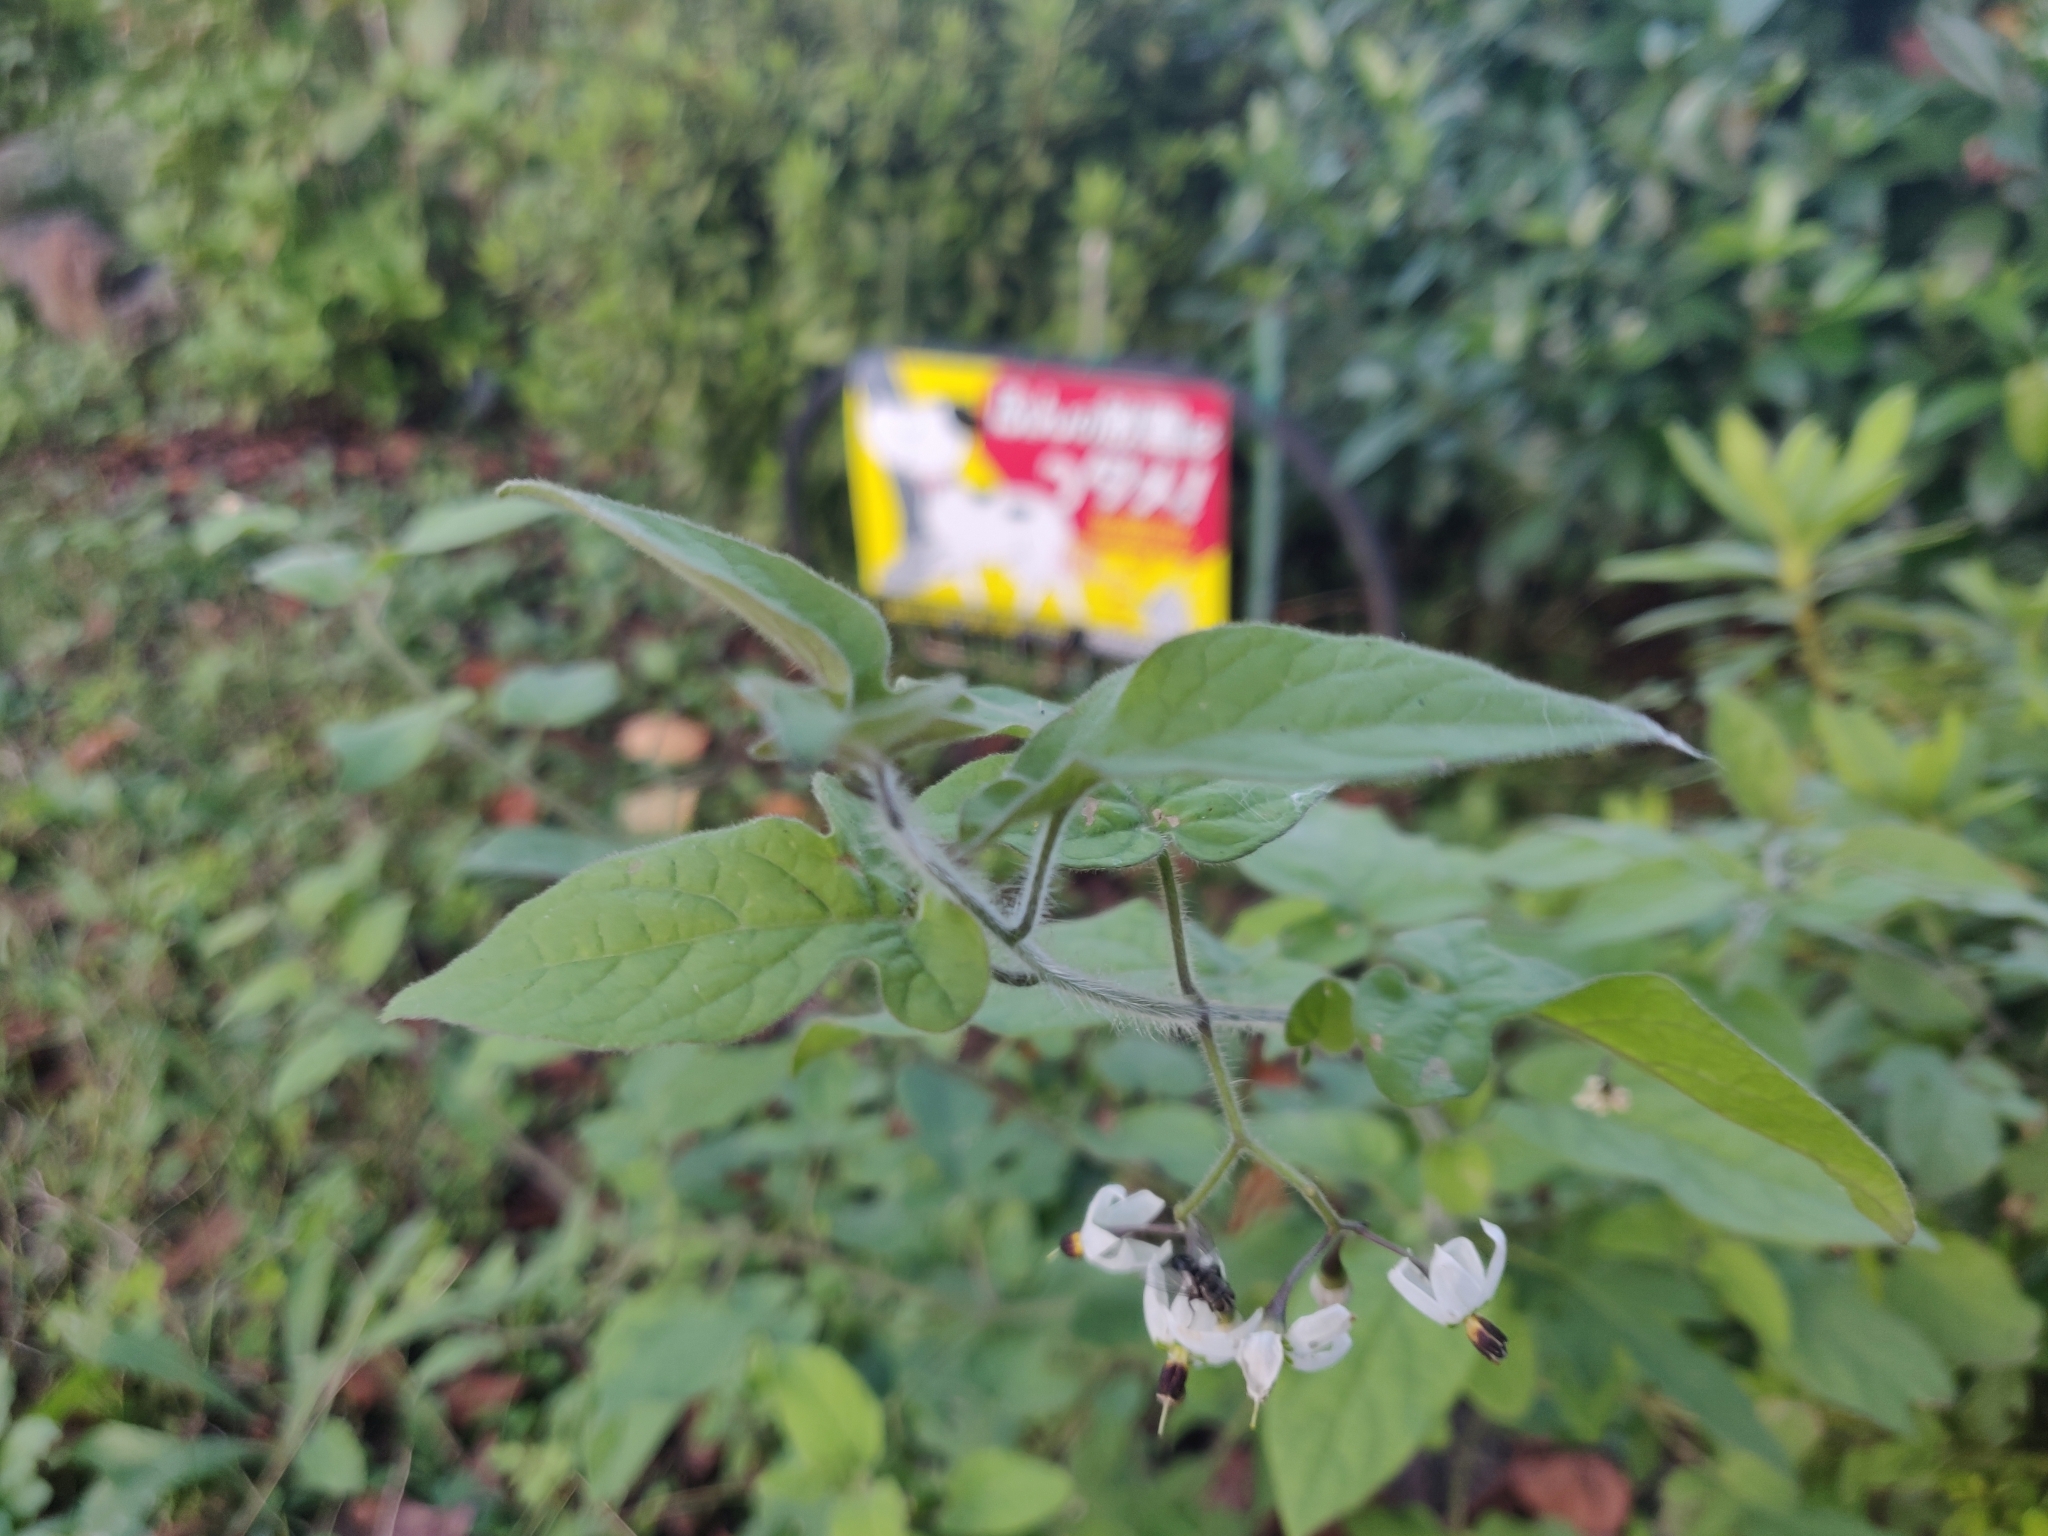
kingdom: Plantae
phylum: Tracheophyta
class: Magnoliopsida
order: Solanales
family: Solanaceae
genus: Solanum
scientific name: Solanum lyratum
